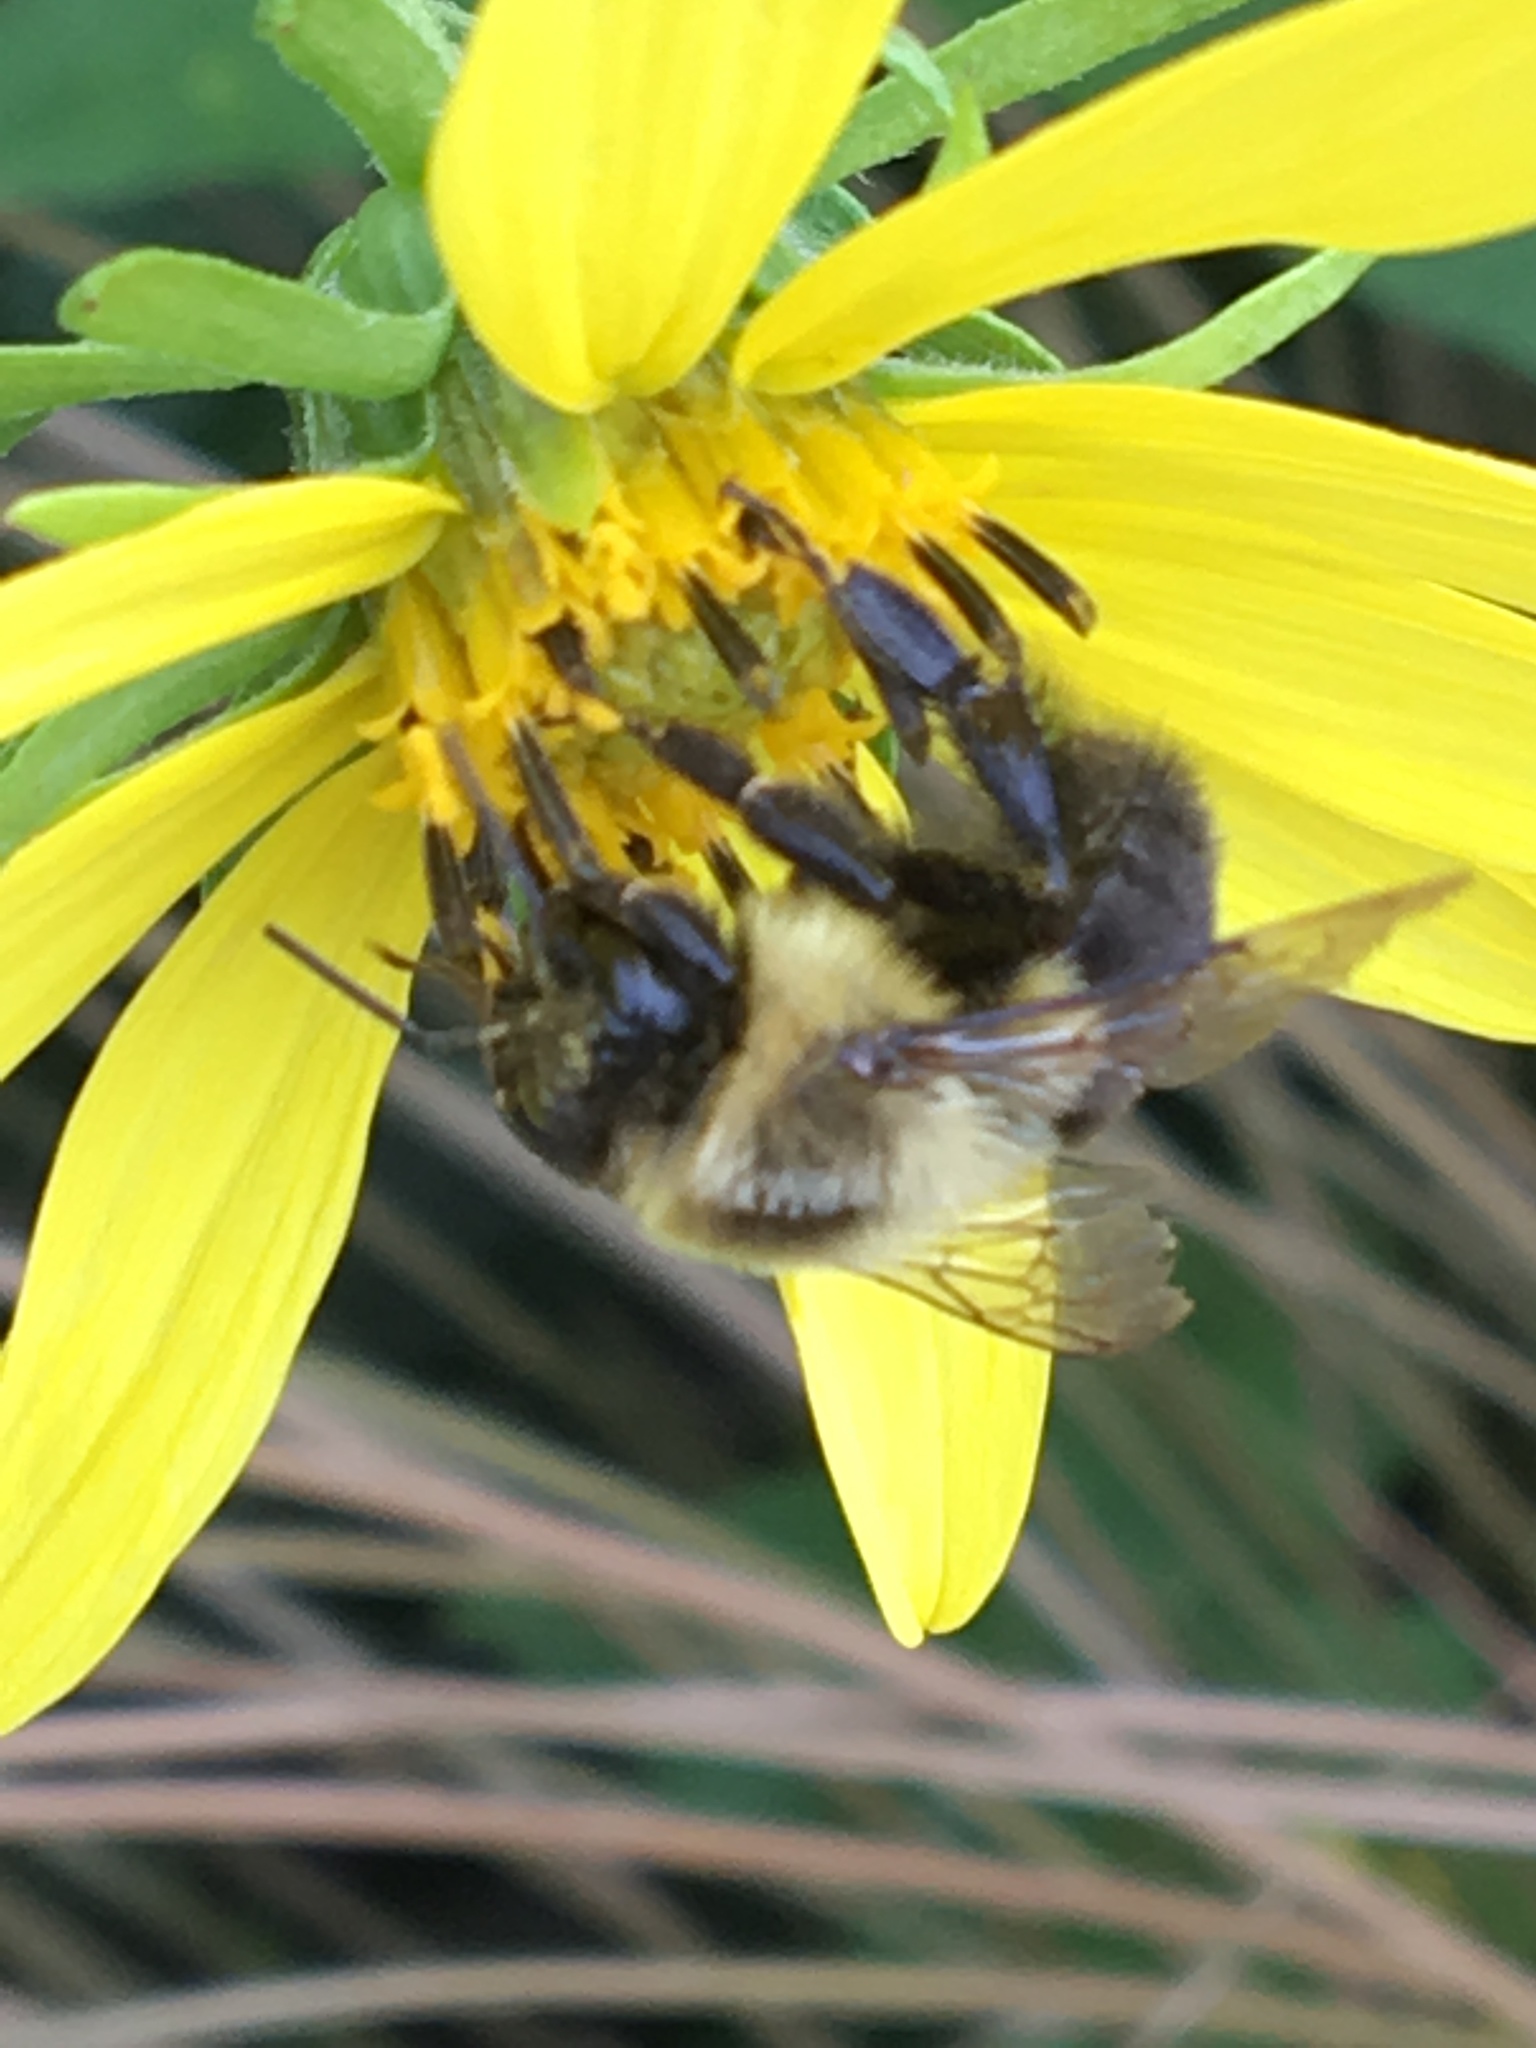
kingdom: Animalia
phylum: Arthropoda
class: Insecta
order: Hymenoptera
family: Apidae
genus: Bombus
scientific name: Bombus impatiens
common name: Common eastern bumble bee
